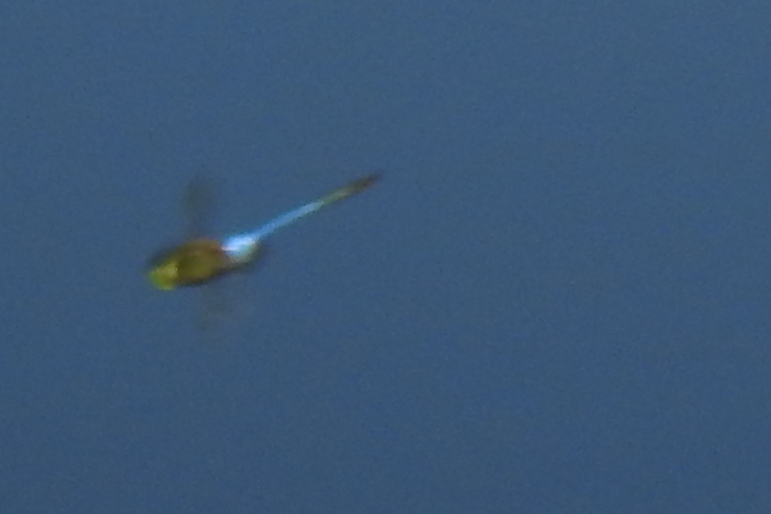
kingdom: Animalia
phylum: Arthropoda
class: Insecta
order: Odonata
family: Aeshnidae
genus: Anax
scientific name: Anax junius
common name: Common green darner
